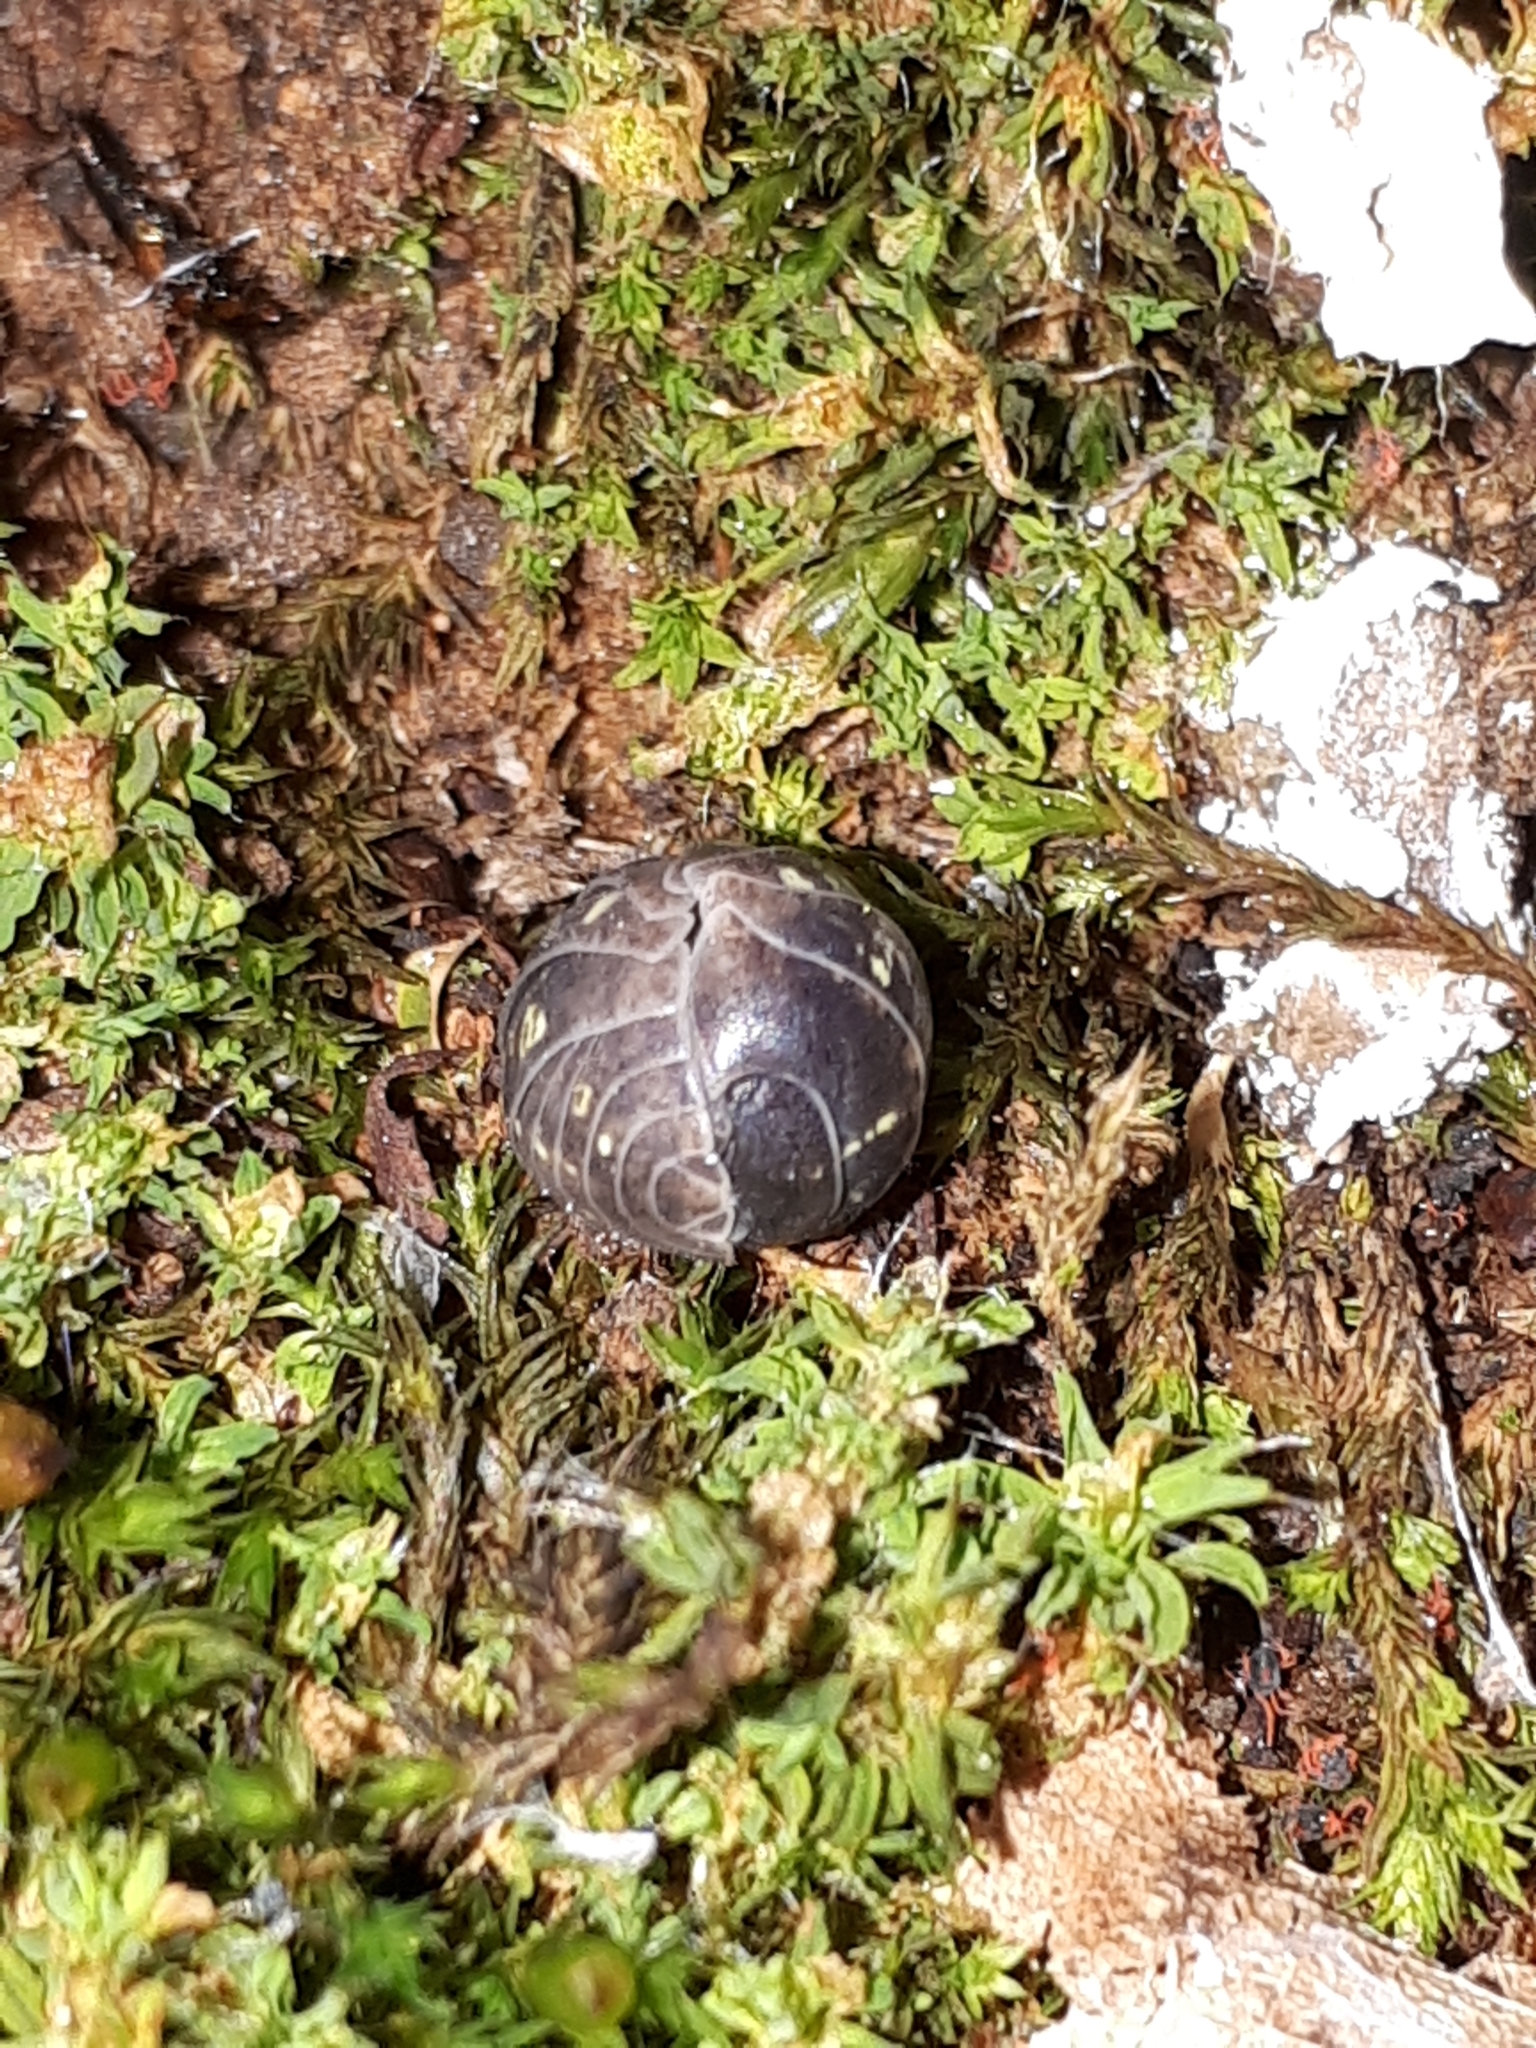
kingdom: Animalia
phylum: Arthropoda
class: Malacostraca
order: Isopoda
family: Armadillidiidae
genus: Armadillidium
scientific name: Armadillidium vulgare
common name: Common pill woodlouse
